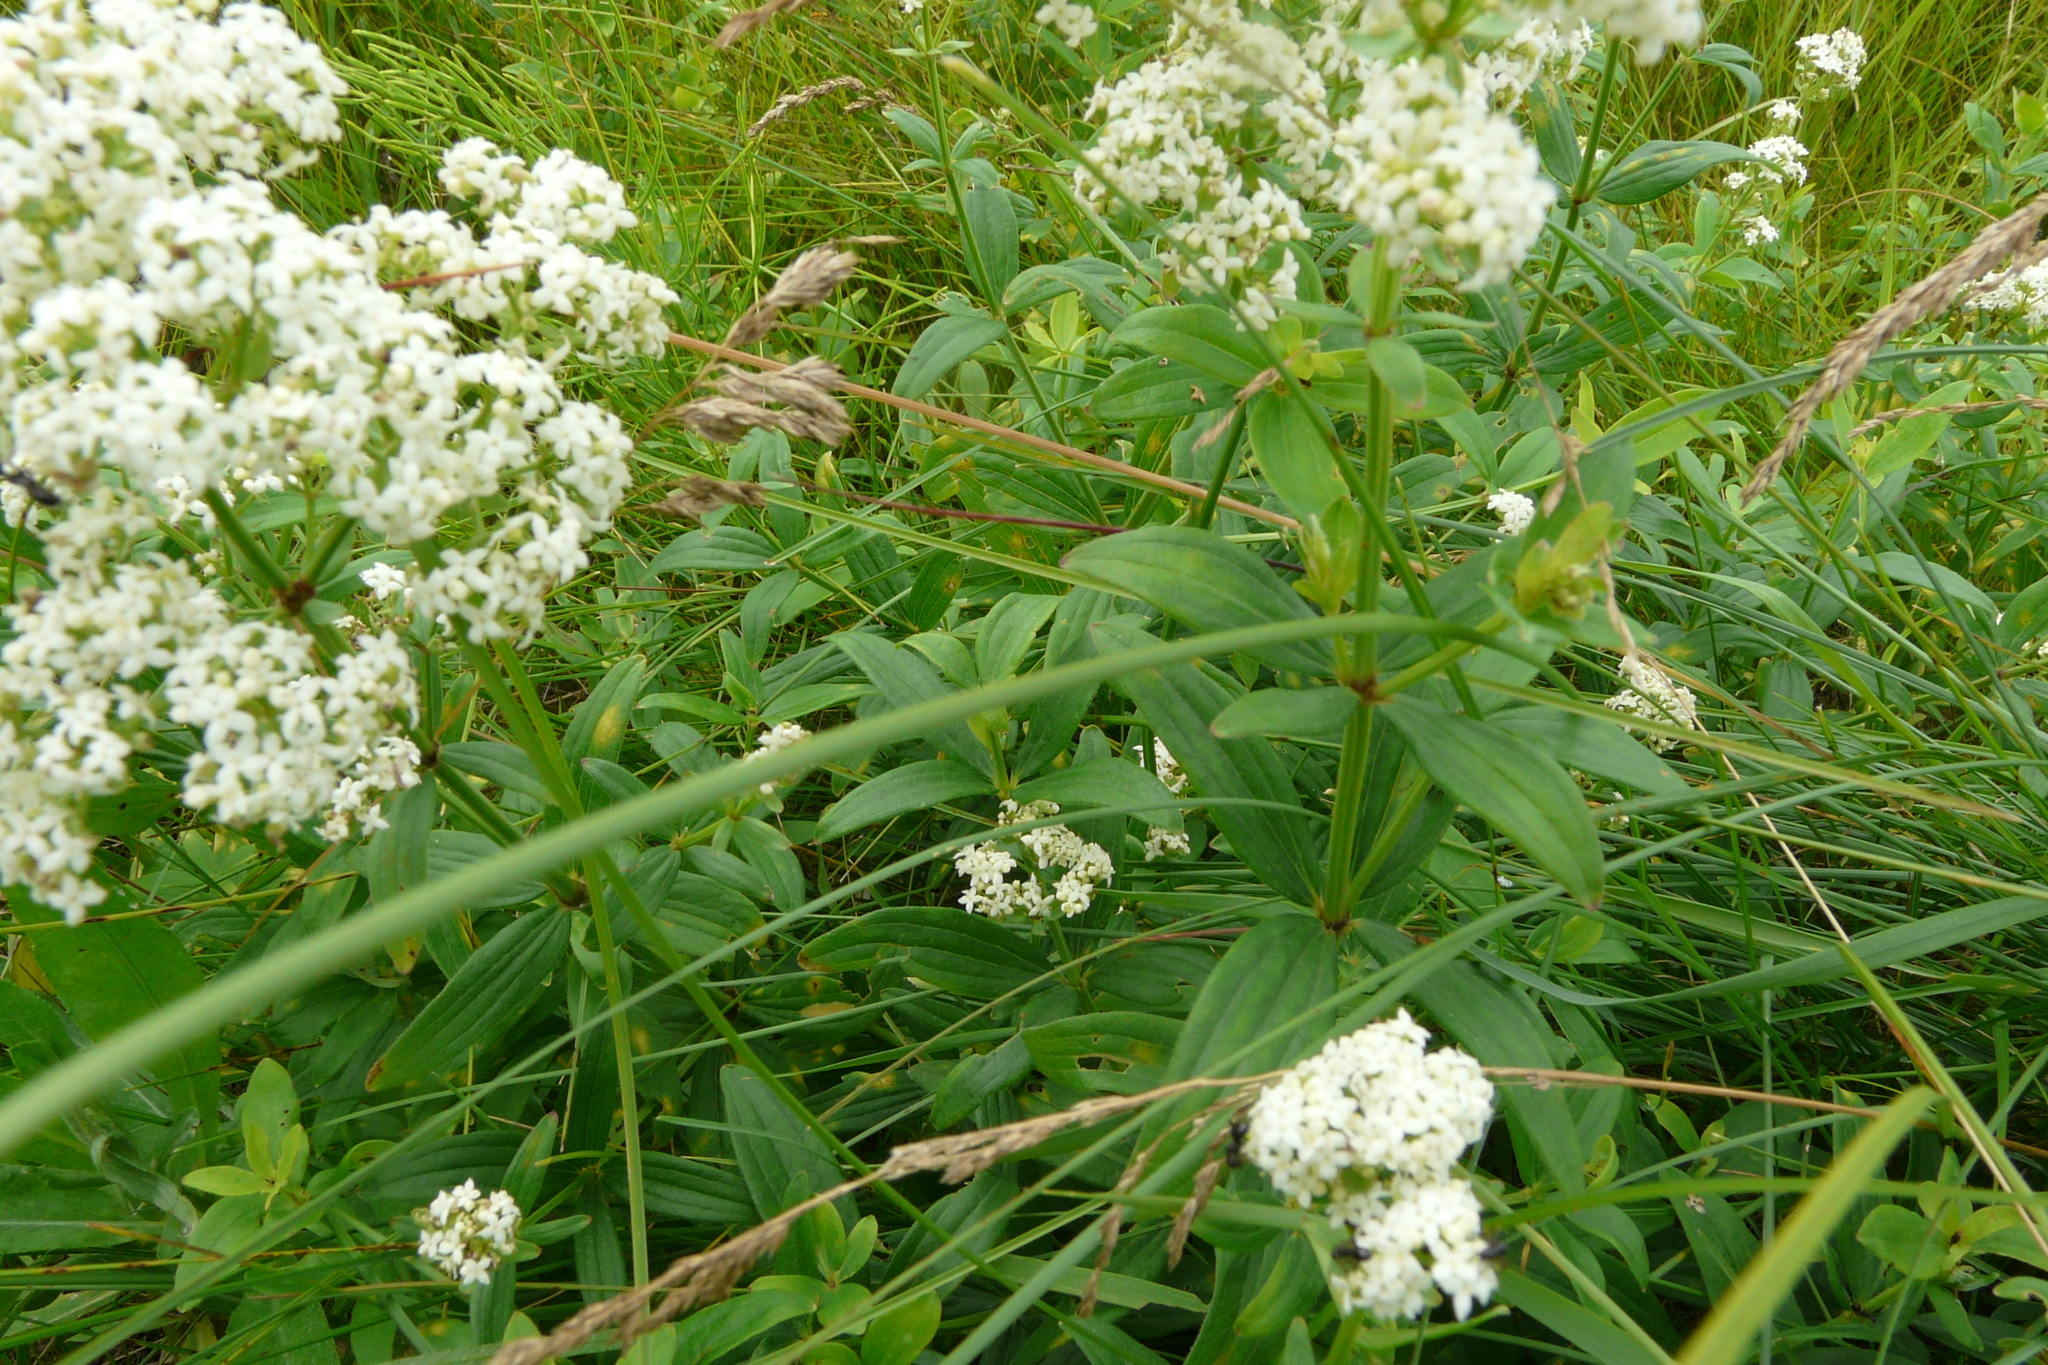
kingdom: Plantae
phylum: Tracheophyta
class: Magnoliopsida
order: Gentianales
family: Rubiaceae
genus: Galium
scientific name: Galium rubioides
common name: European bedstraw
